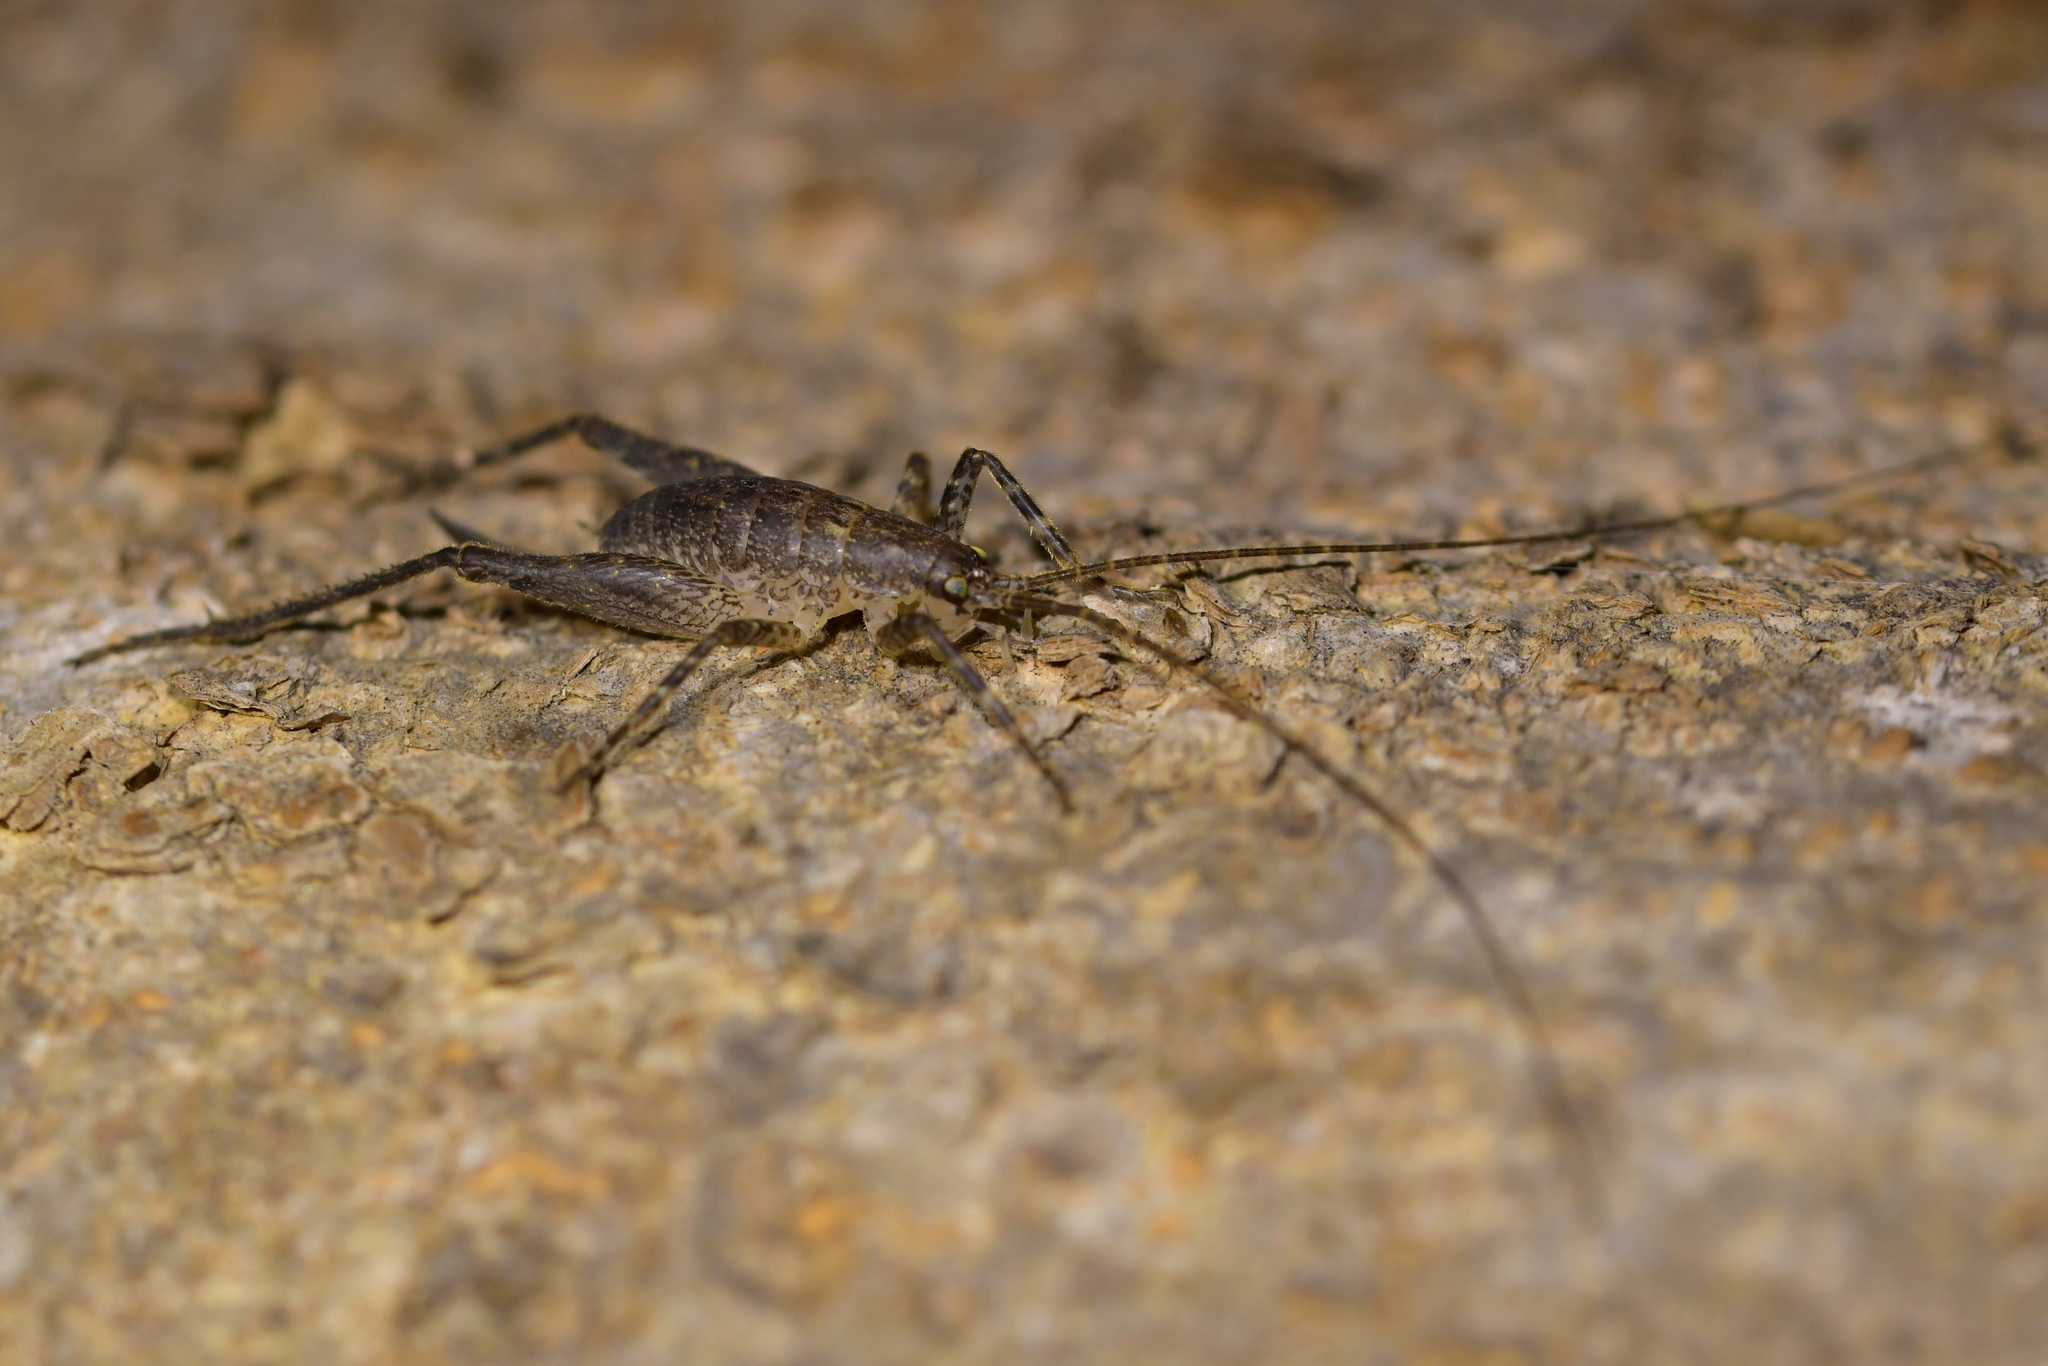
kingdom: Animalia
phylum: Arthropoda
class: Insecta
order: Orthoptera
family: Rhaphidophoridae
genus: Isoplectron
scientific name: Isoplectron armatum
